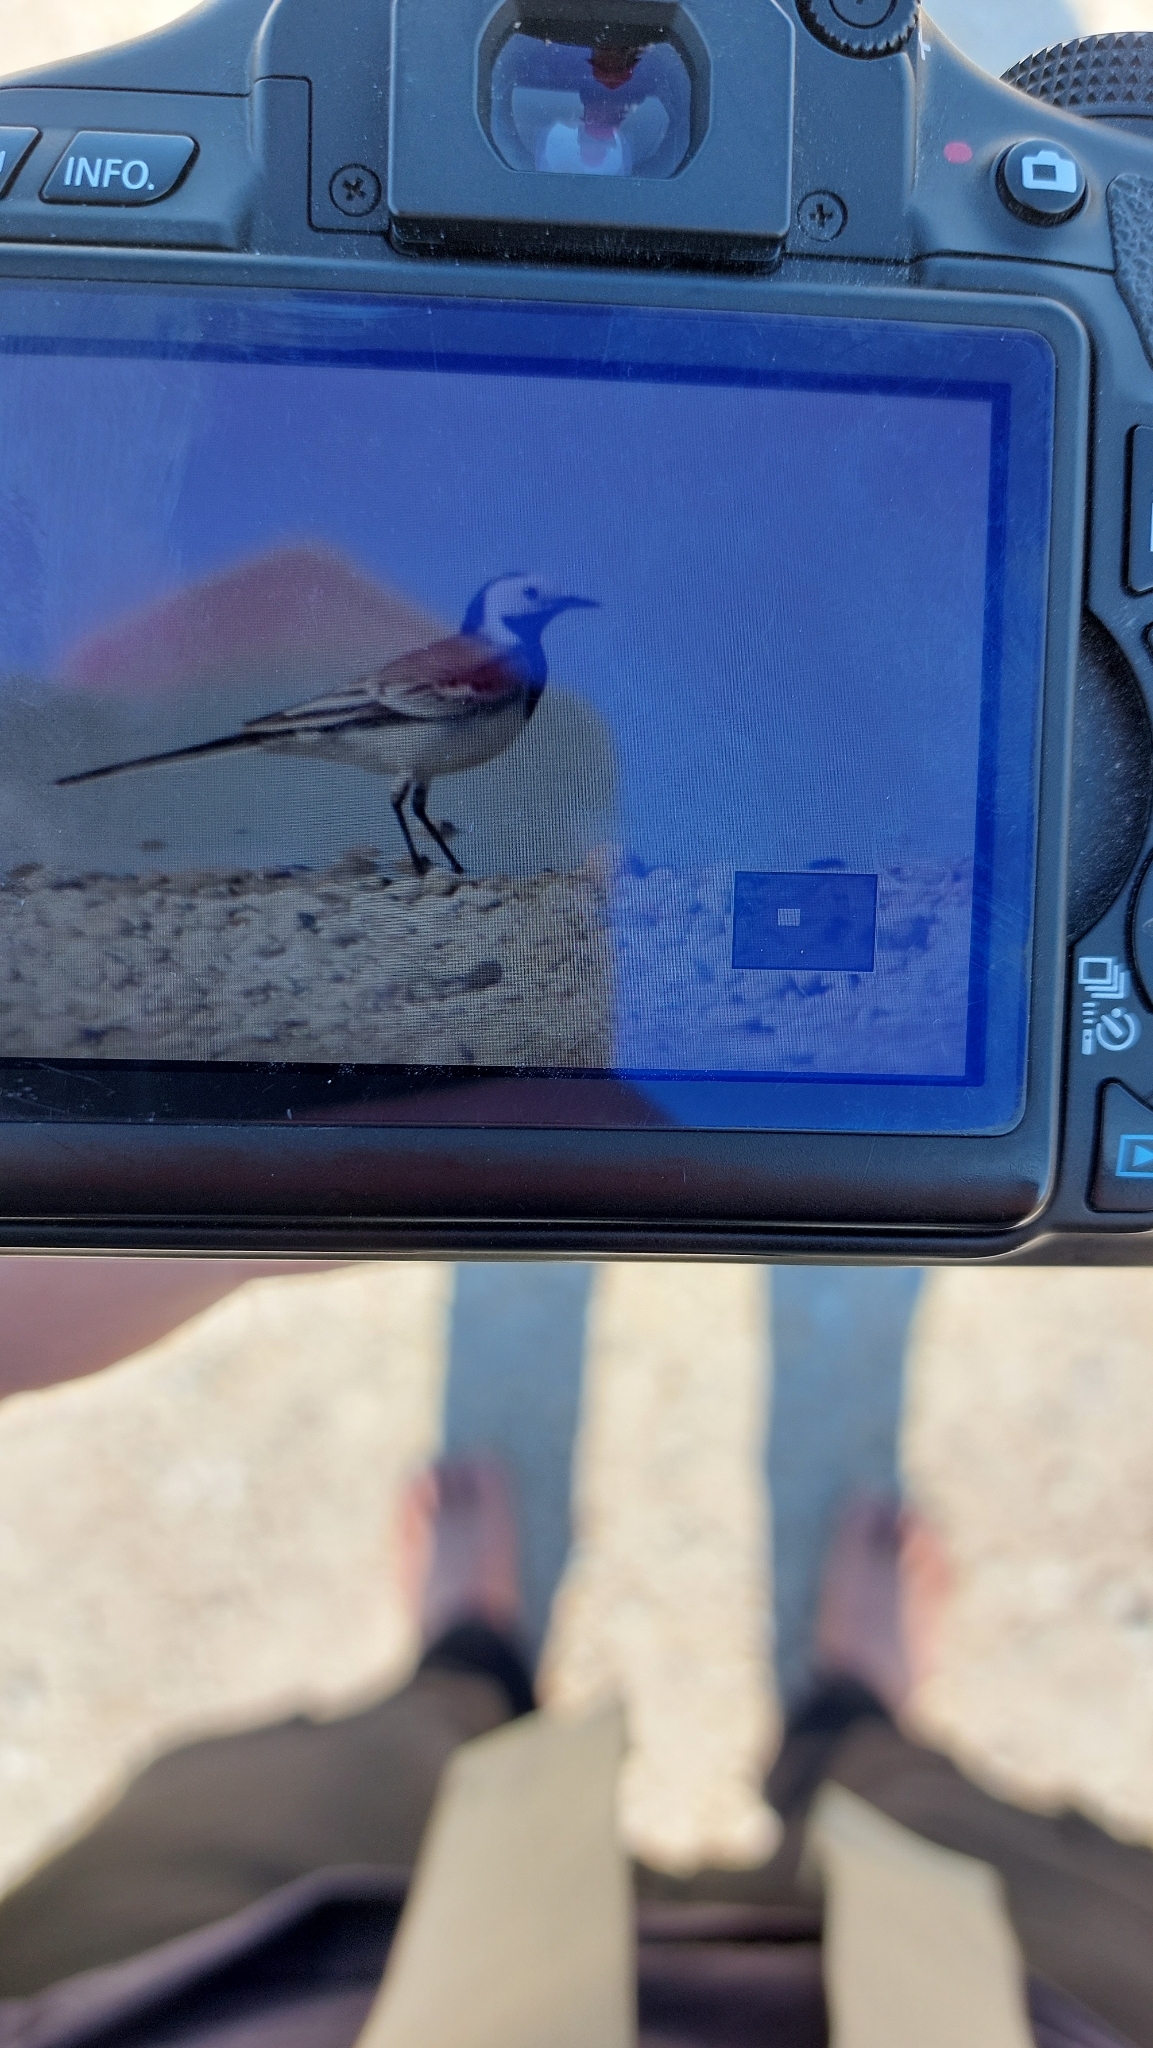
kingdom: Animalia
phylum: Chordata
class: Aves
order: Passeriformes
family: Motacillidae
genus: Motacilla
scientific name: Motacilla alba
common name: White wagtail
